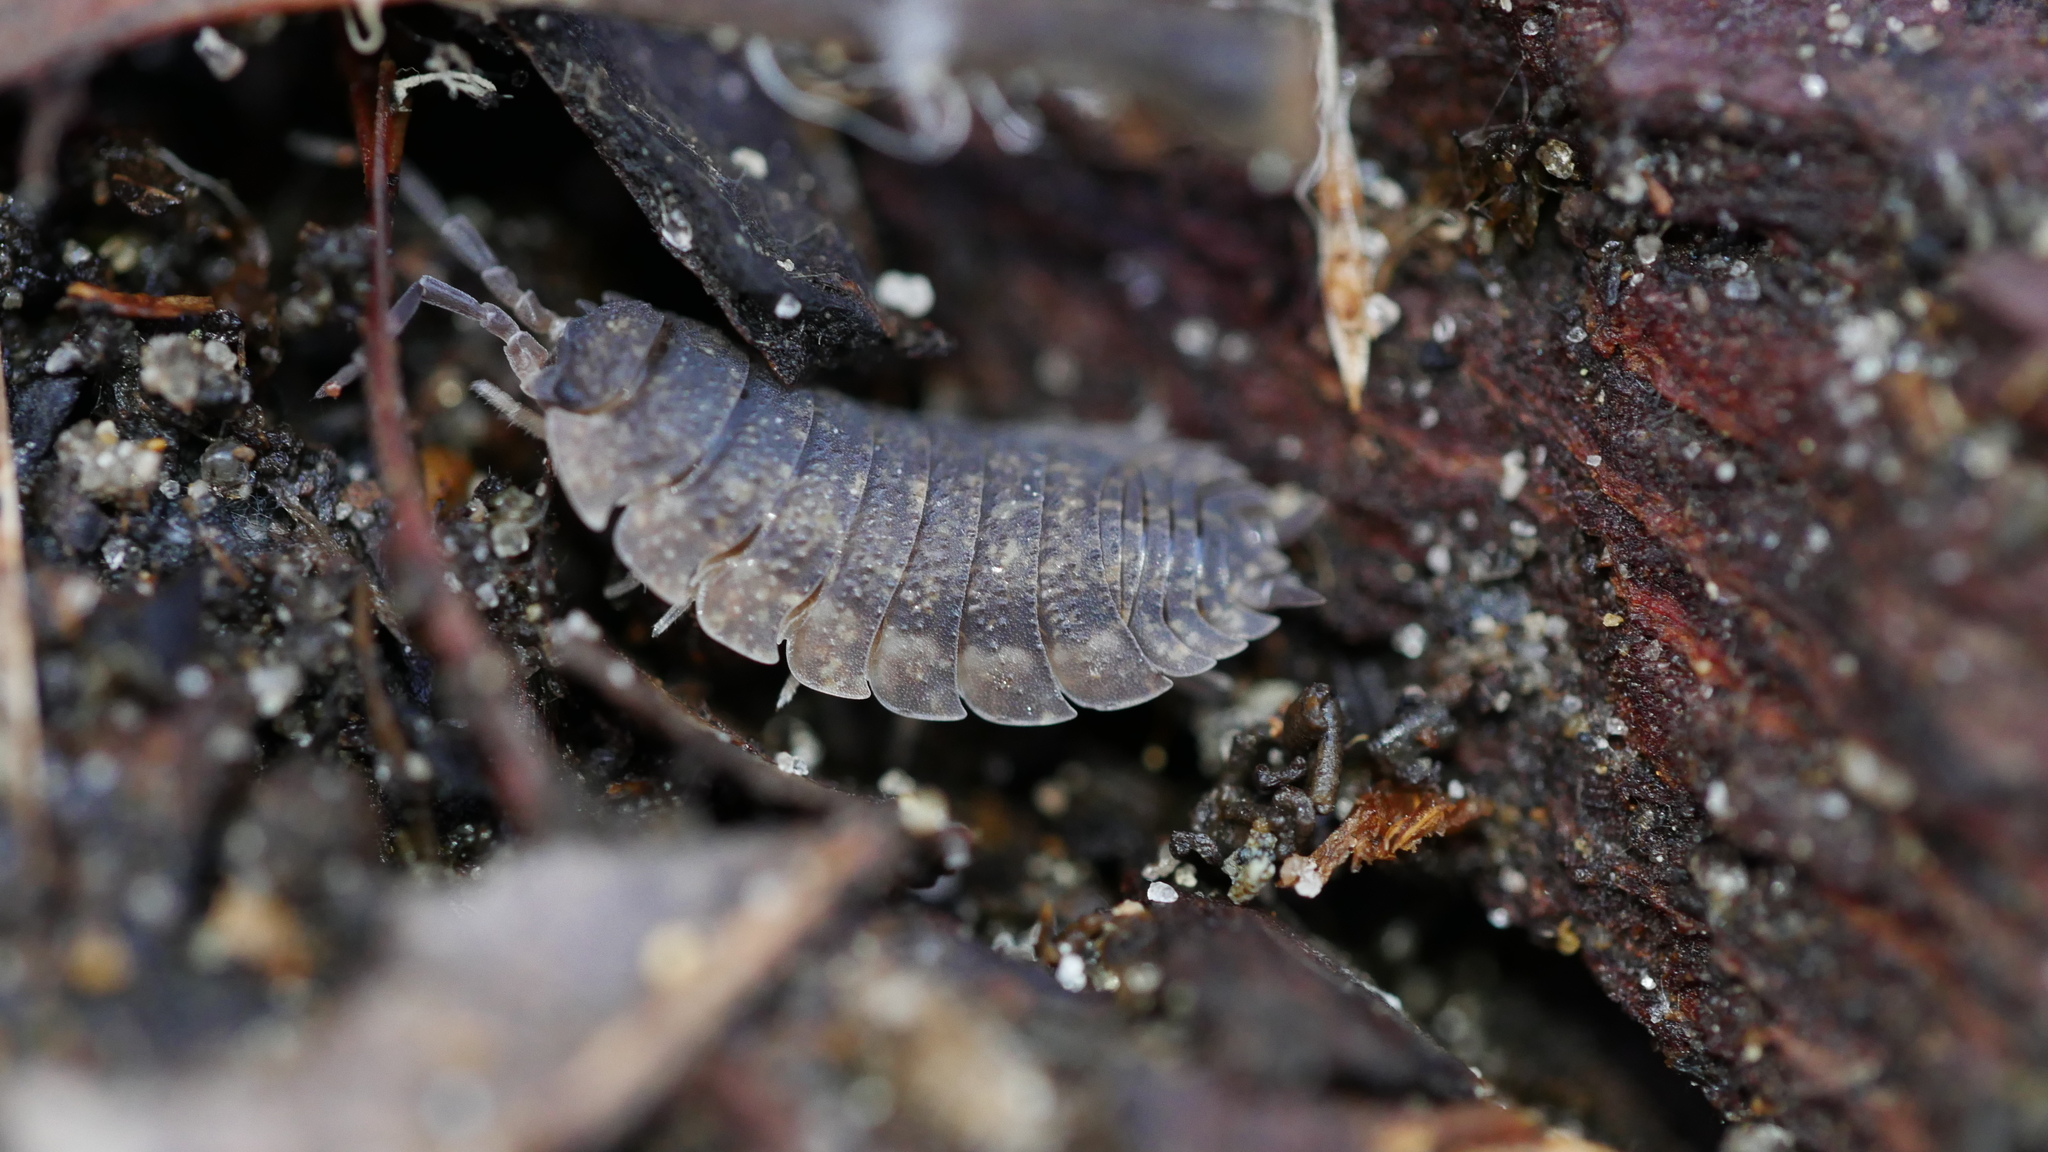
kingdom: Animalia
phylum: Arthropoda
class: Malacostraca
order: Isopoda
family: Porcellionidae
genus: Porcellio
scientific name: Porcellio scaber
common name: Common rough woodlouse
